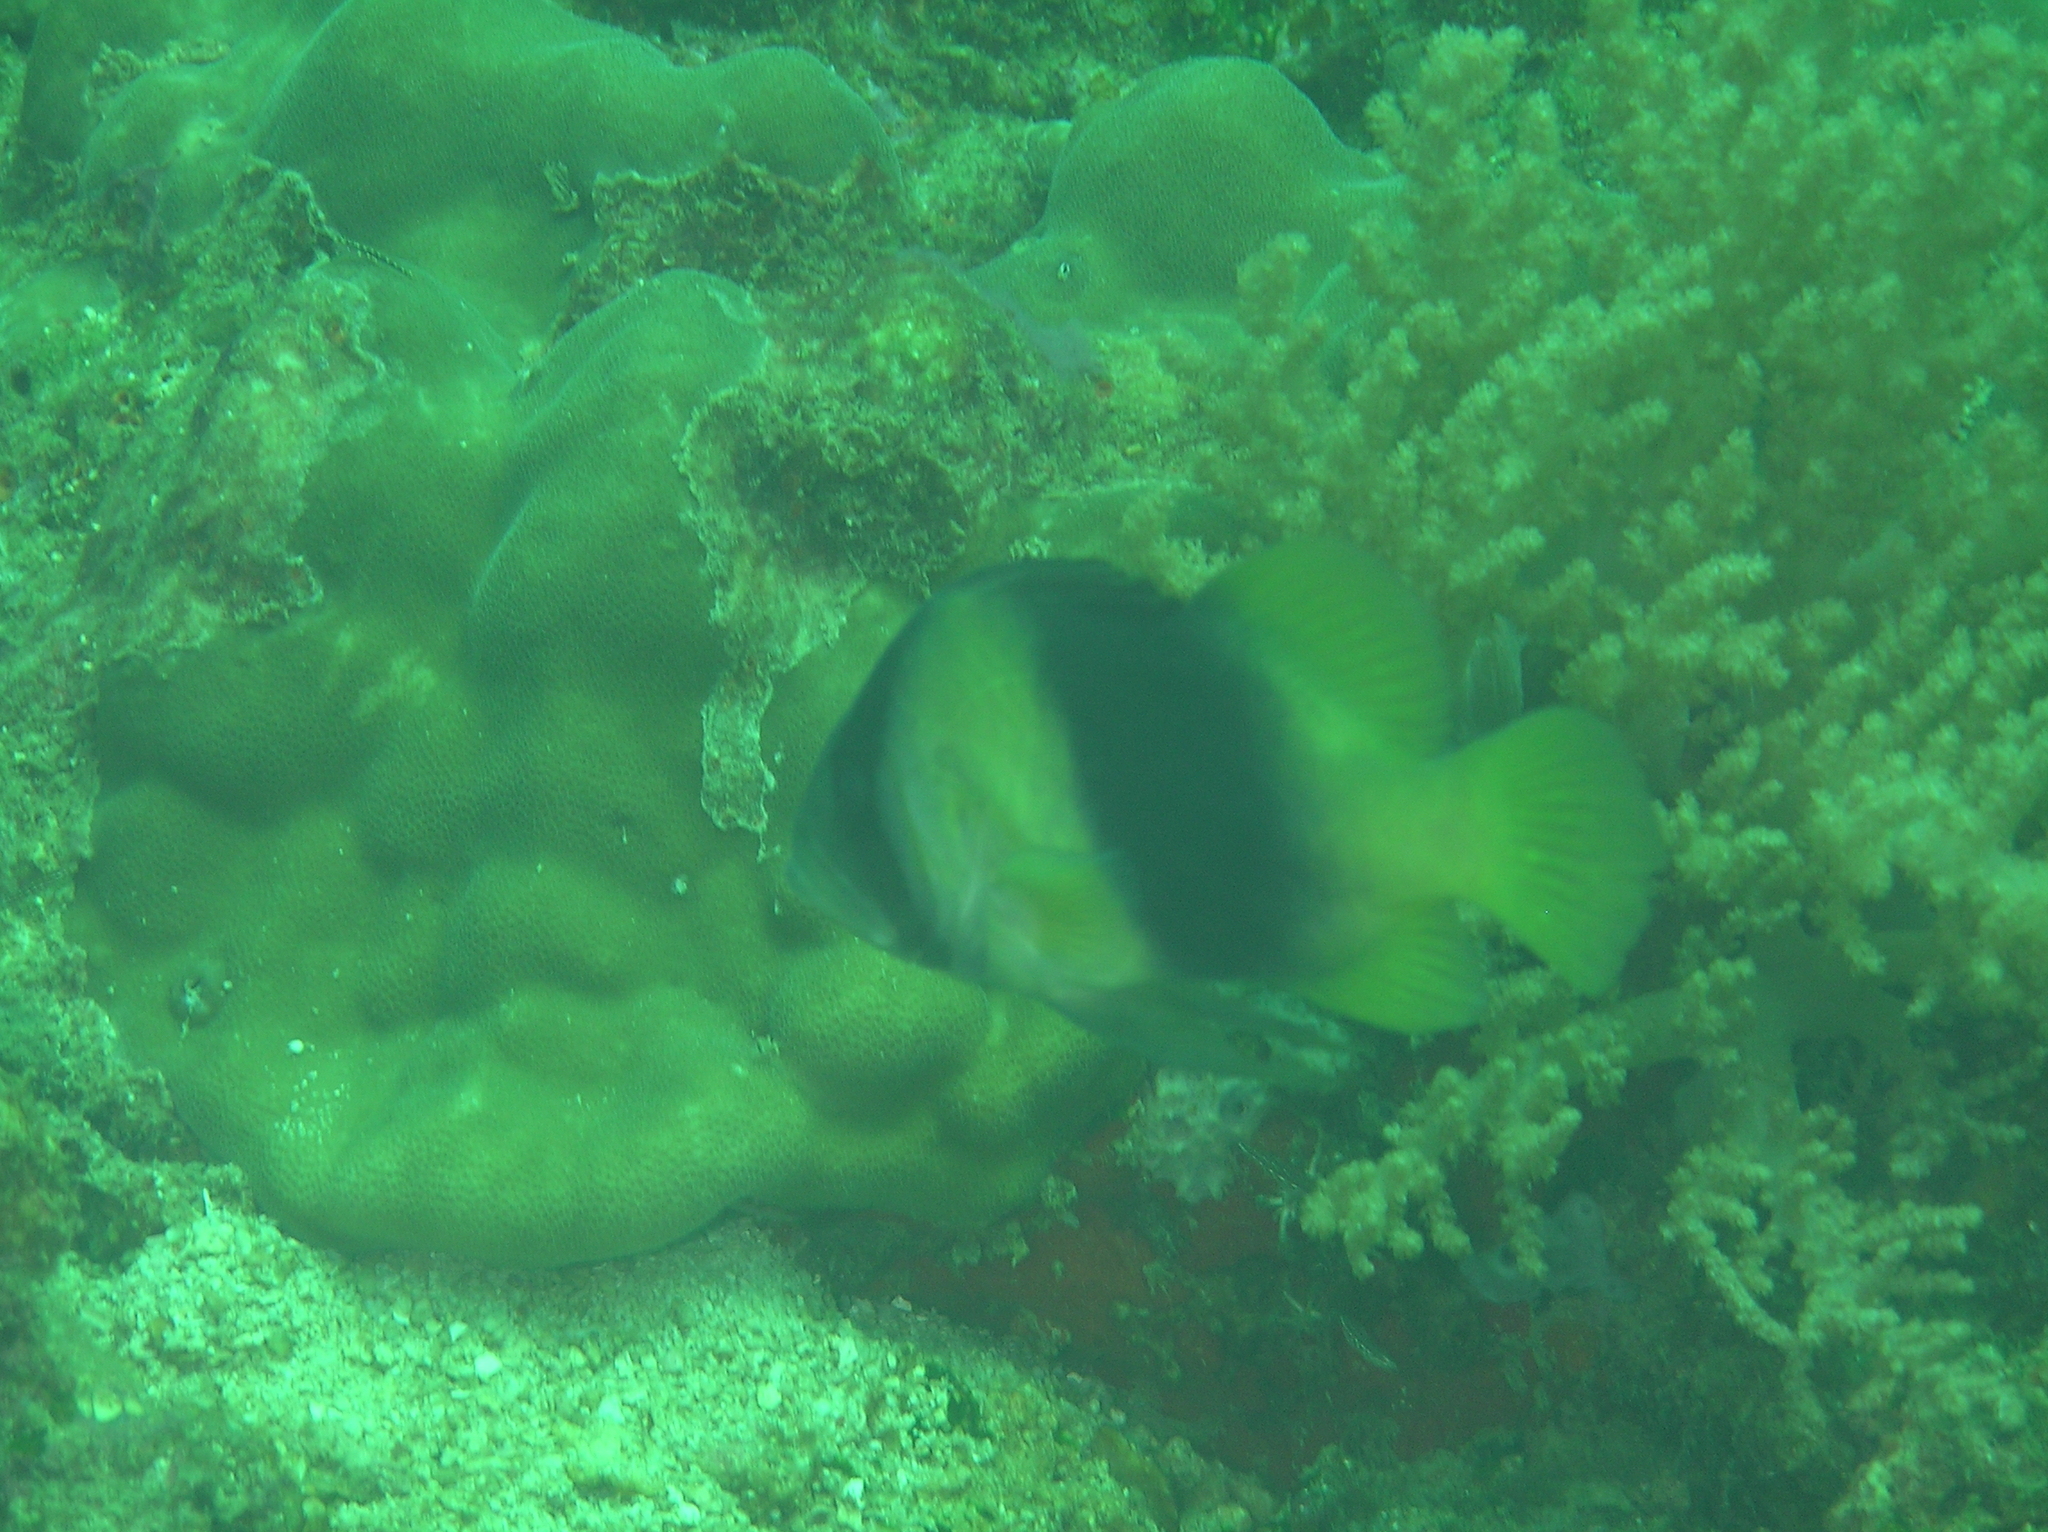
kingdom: Animalia
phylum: Chordata
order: Perciformes
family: Serranidae
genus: Diploprion
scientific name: Diploprion bifasciatum
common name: Barred soapfish
